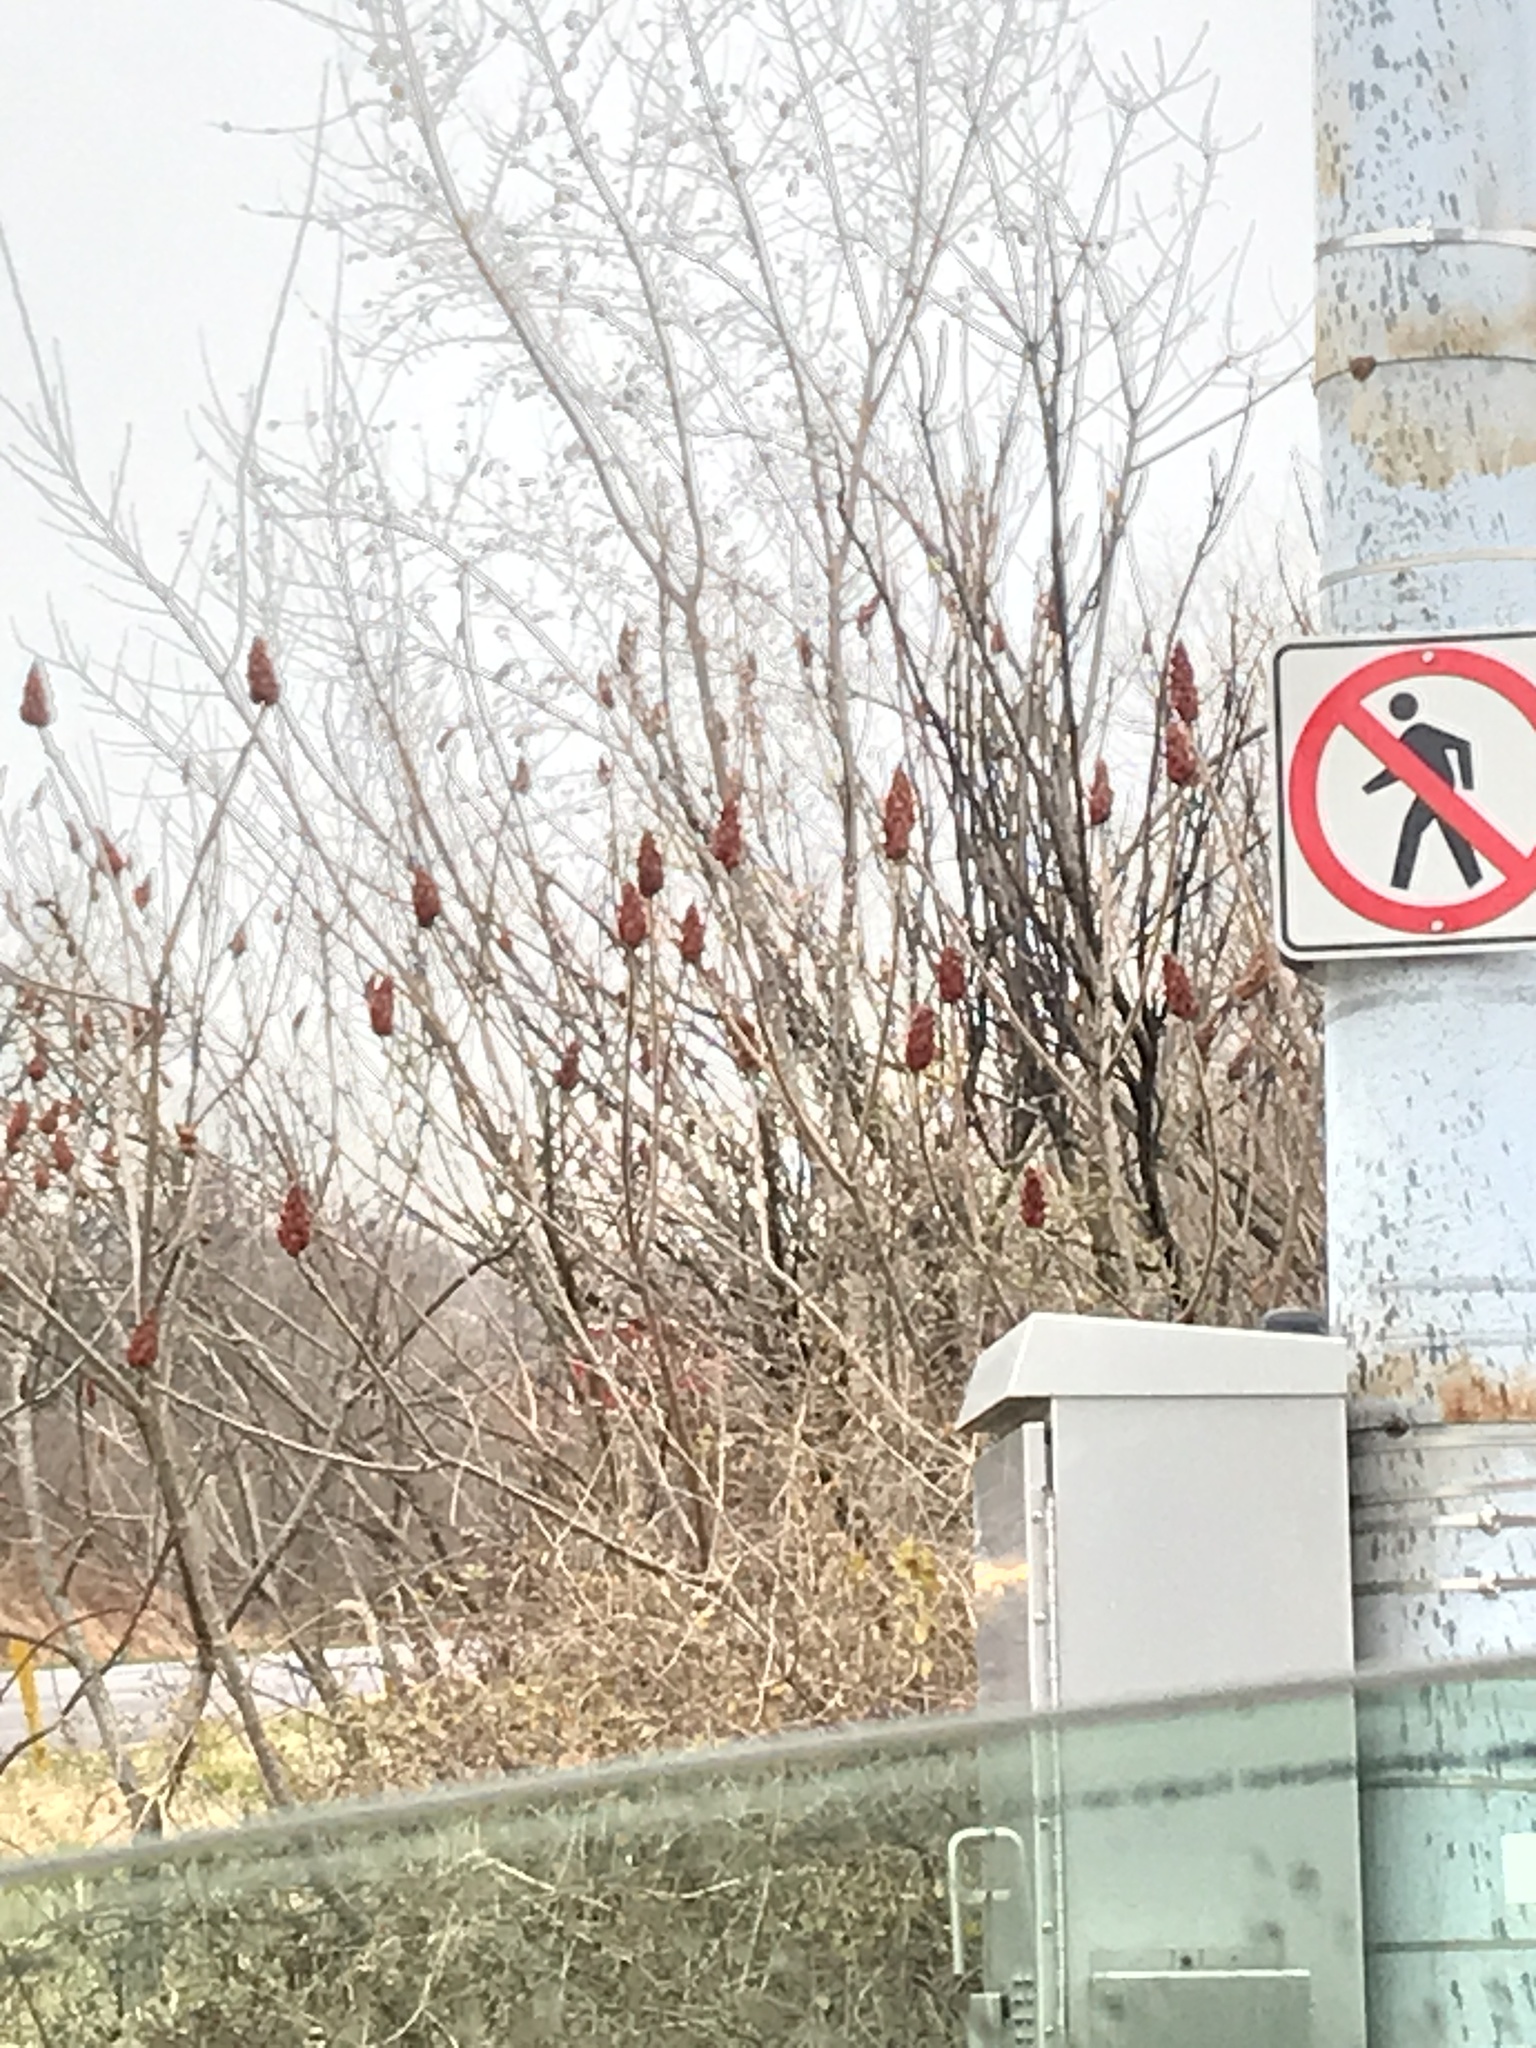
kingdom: Plantae
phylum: Tracheophyta
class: Magnoliopsida
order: Sapindales
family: Anacardiaceae
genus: Rhus
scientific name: Rhus typhina
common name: Staghorn sumac
